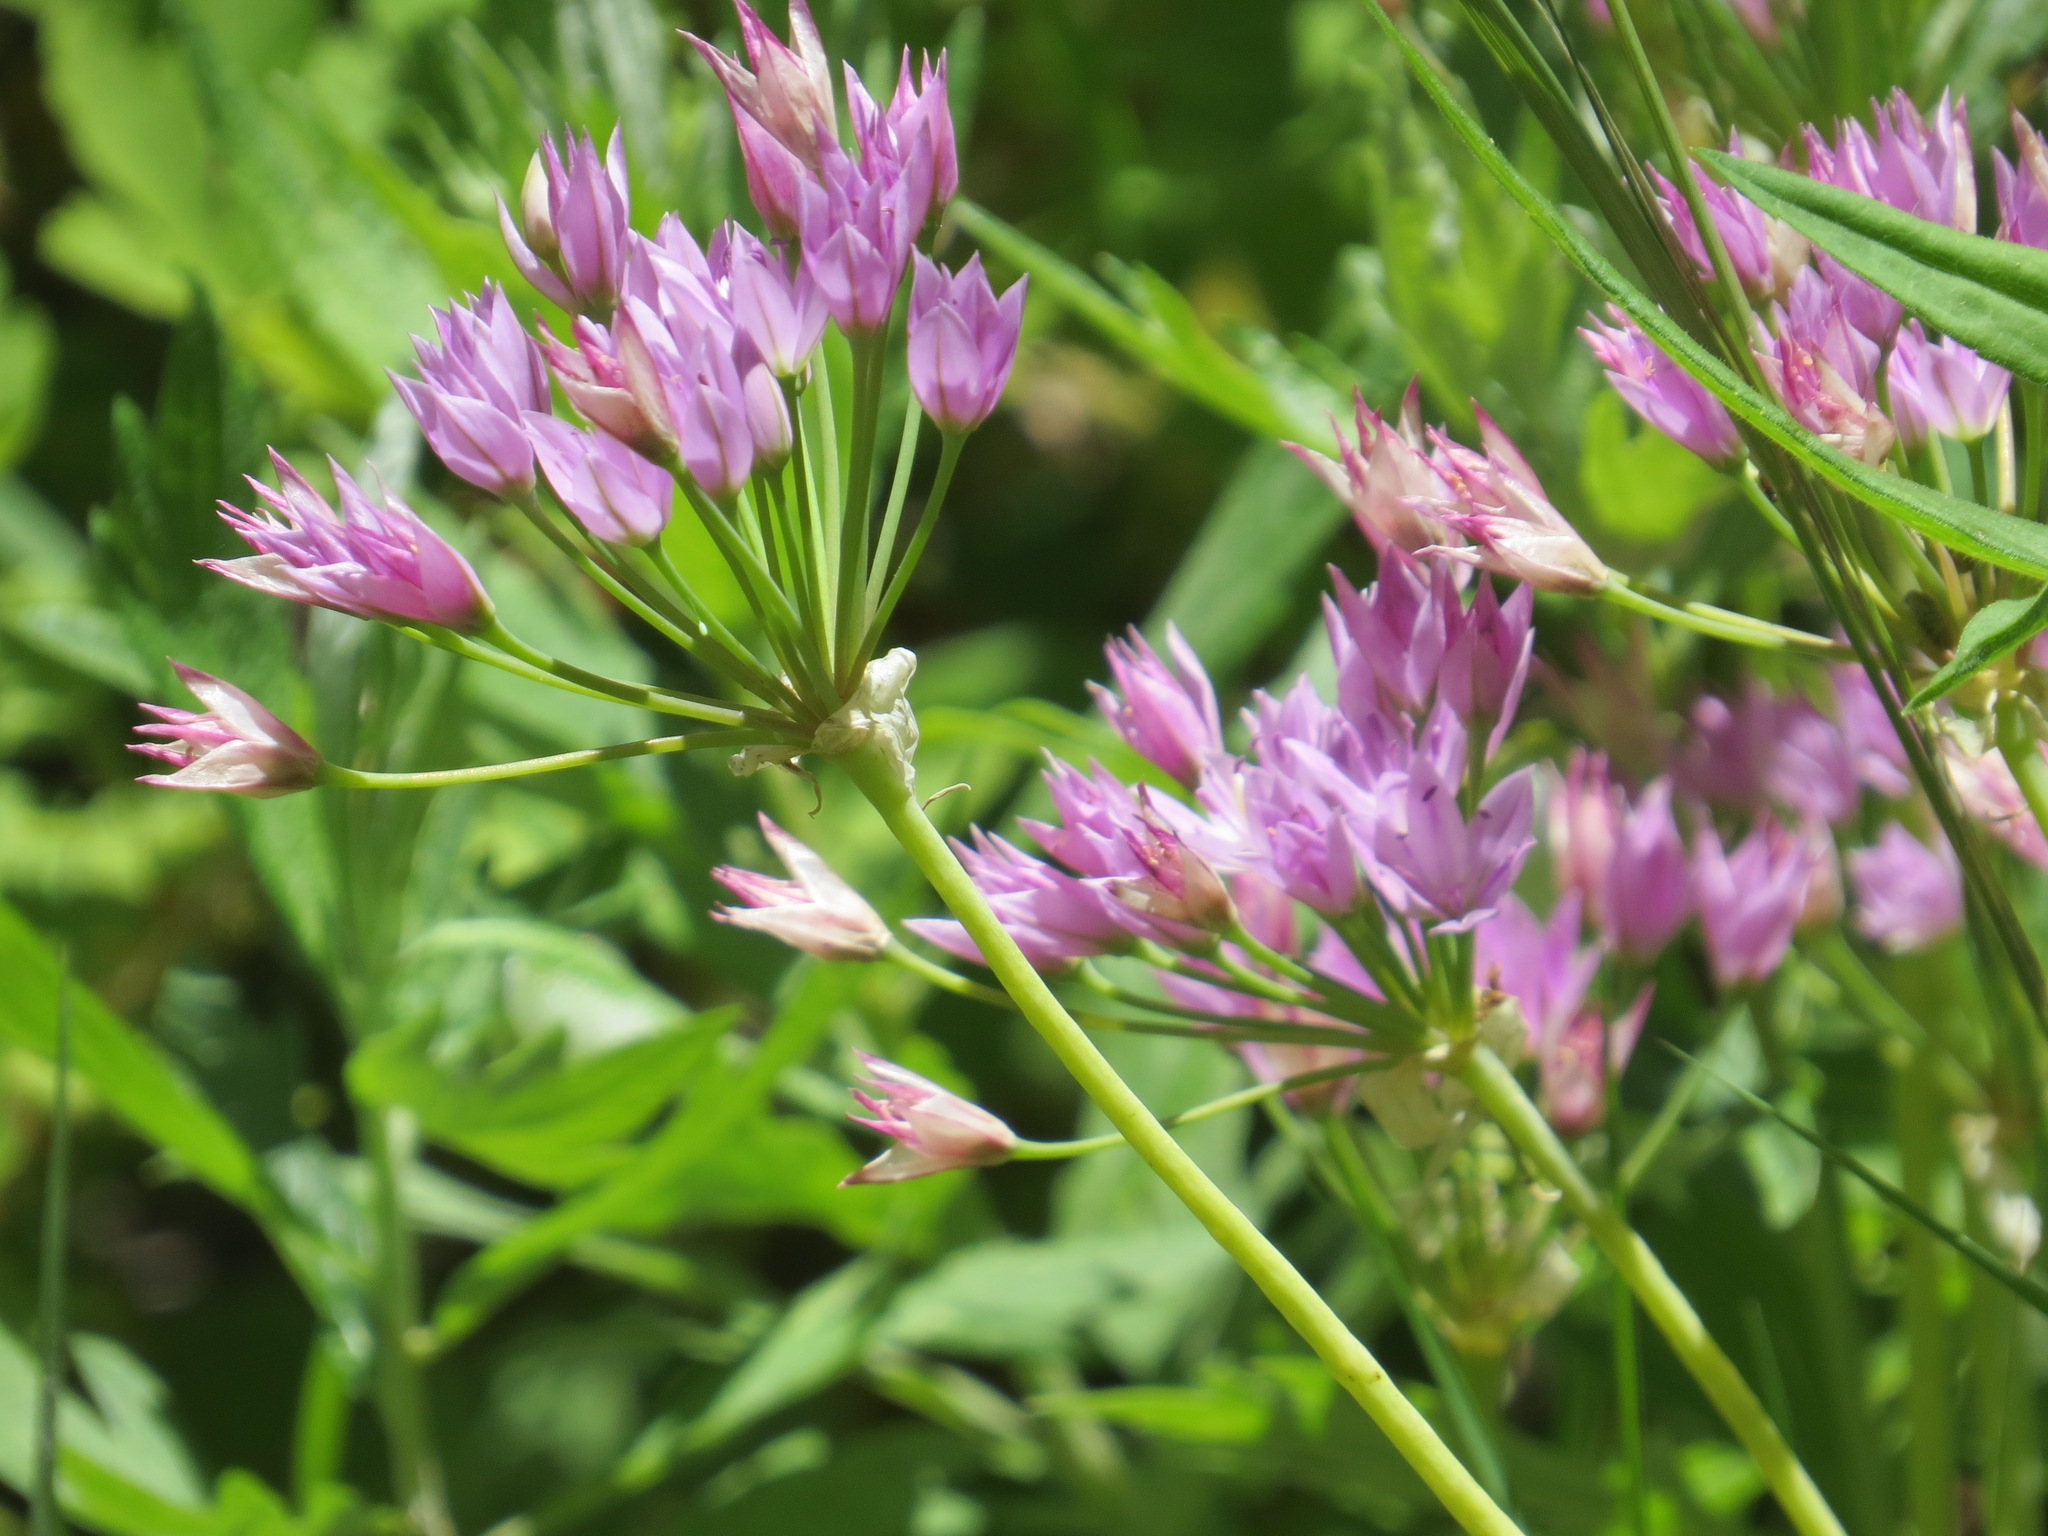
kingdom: Plantae
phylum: Tracheophyta
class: Liliopsida
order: Asparagales
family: Amaryllidaceae
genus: Allium
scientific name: Allium unifolium
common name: American garlic
